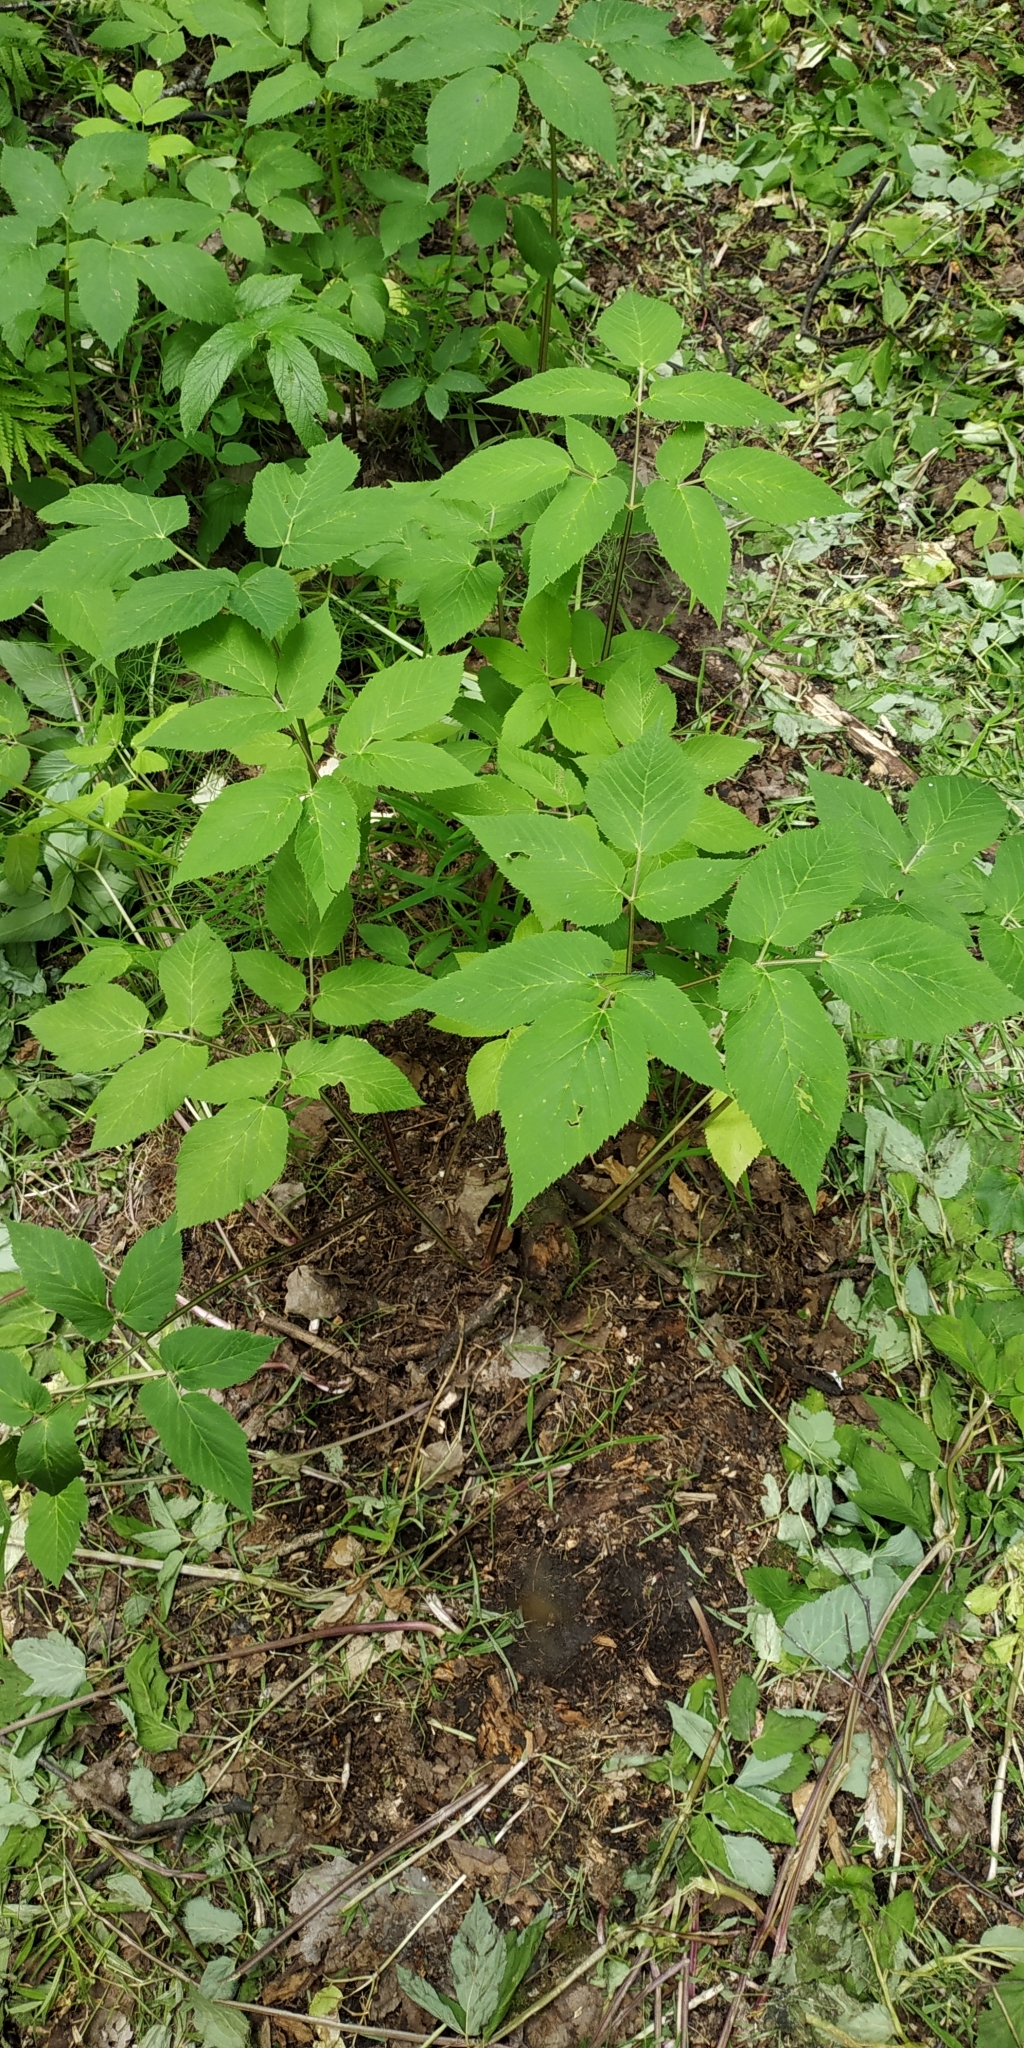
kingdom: Plantae
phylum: Tracheophyta
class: Magnoliopsida
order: Apiales
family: Apiaceae
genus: Aegopodium
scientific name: Aegopodium podagraria
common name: Ground-elder
